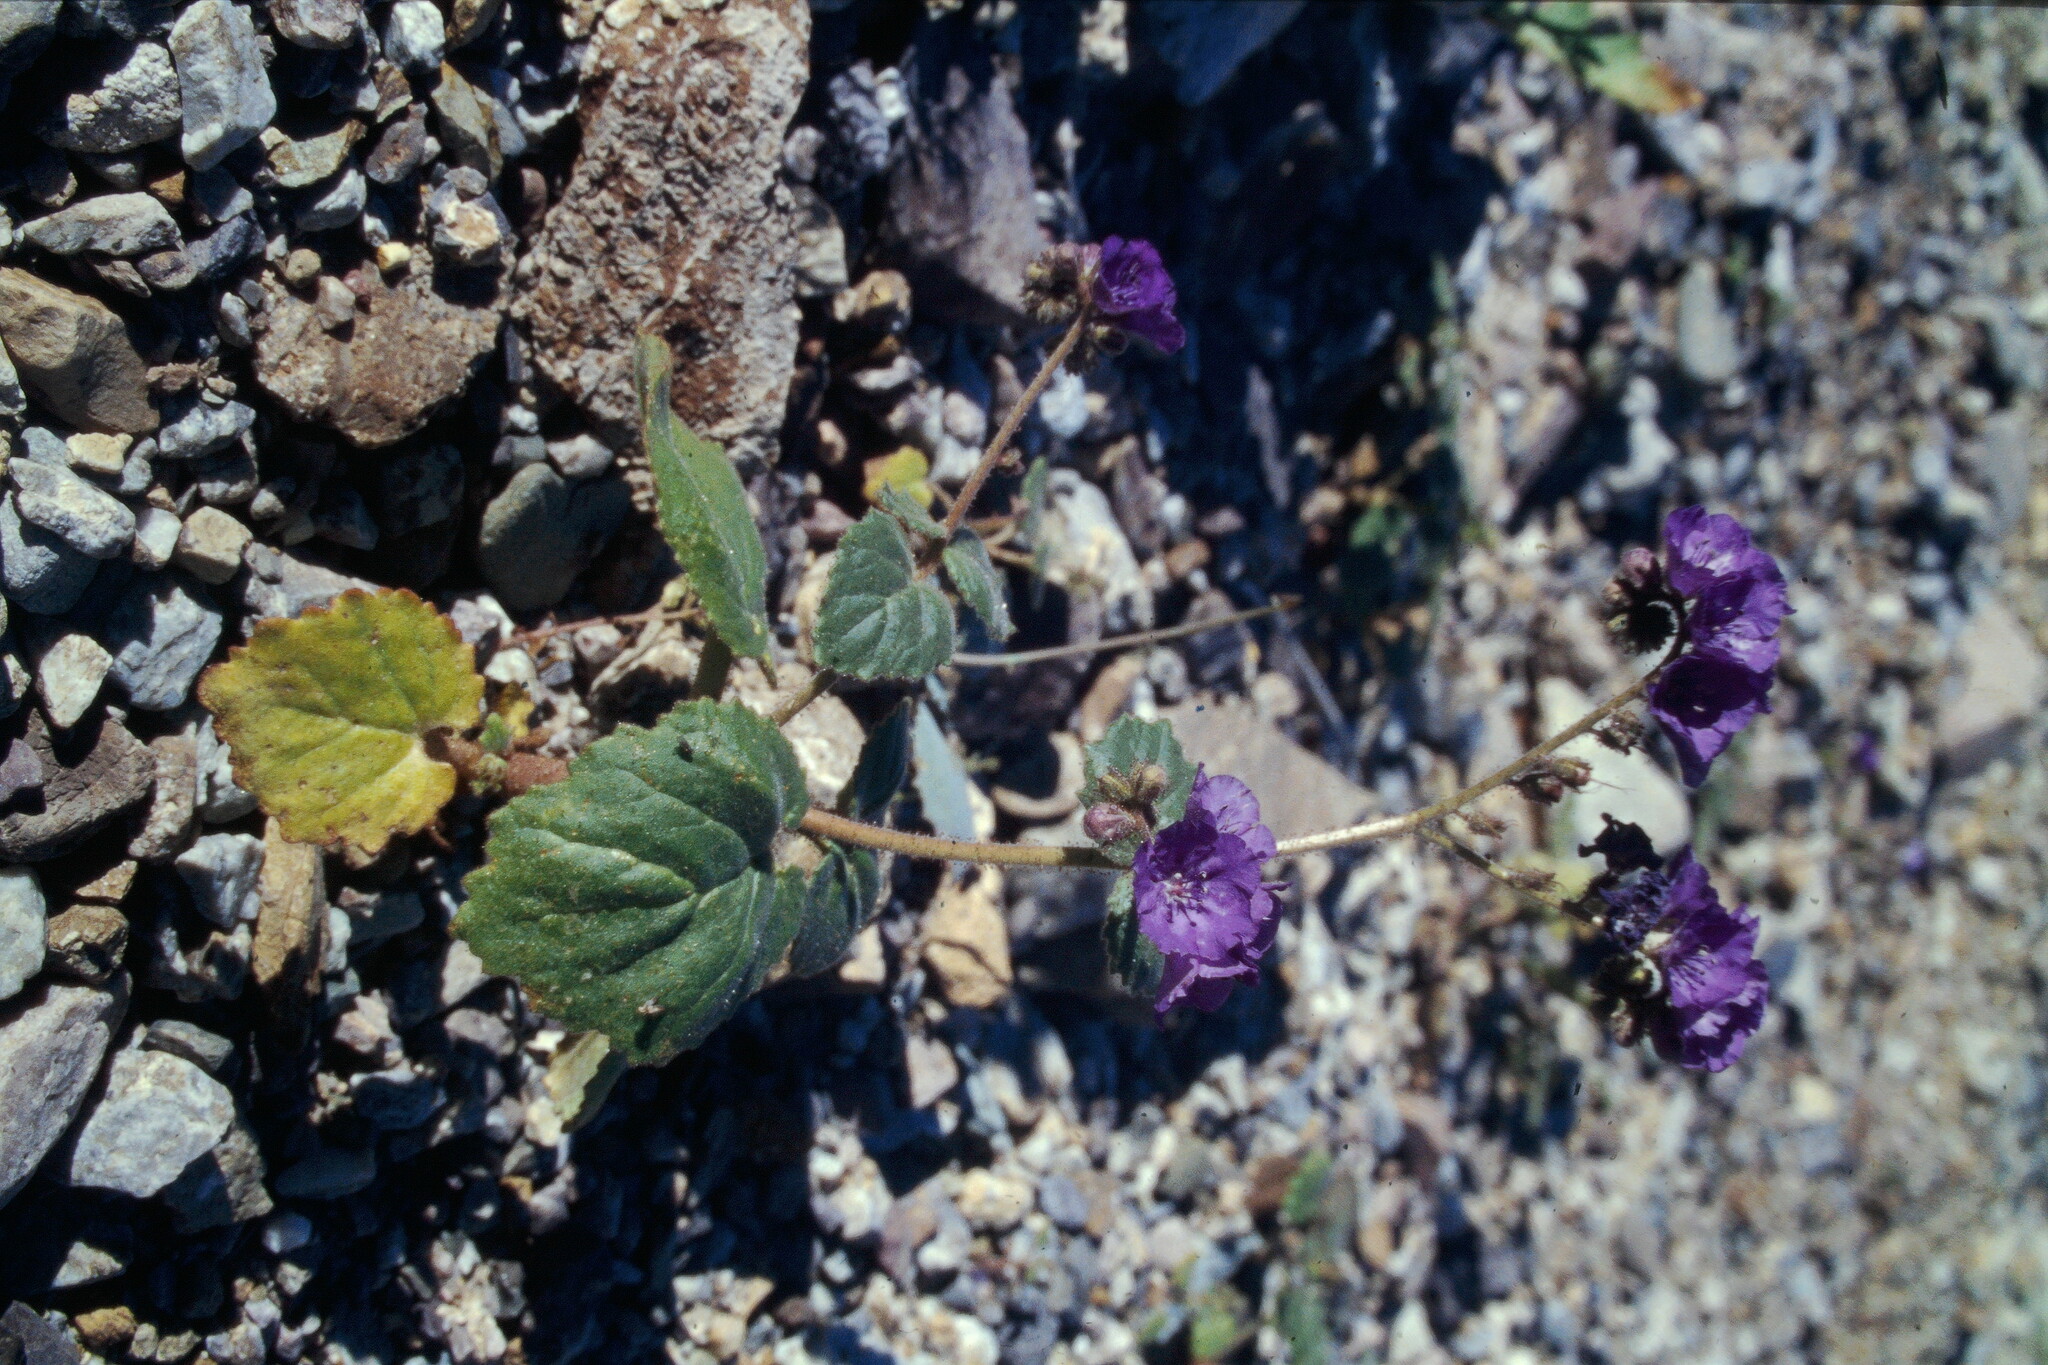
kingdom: Plantae
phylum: Tracheophyta
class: Magnoliopsida
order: Boraginales
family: Hydrophyllaceae
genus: Phacelia
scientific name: Phacelia calthifolia
